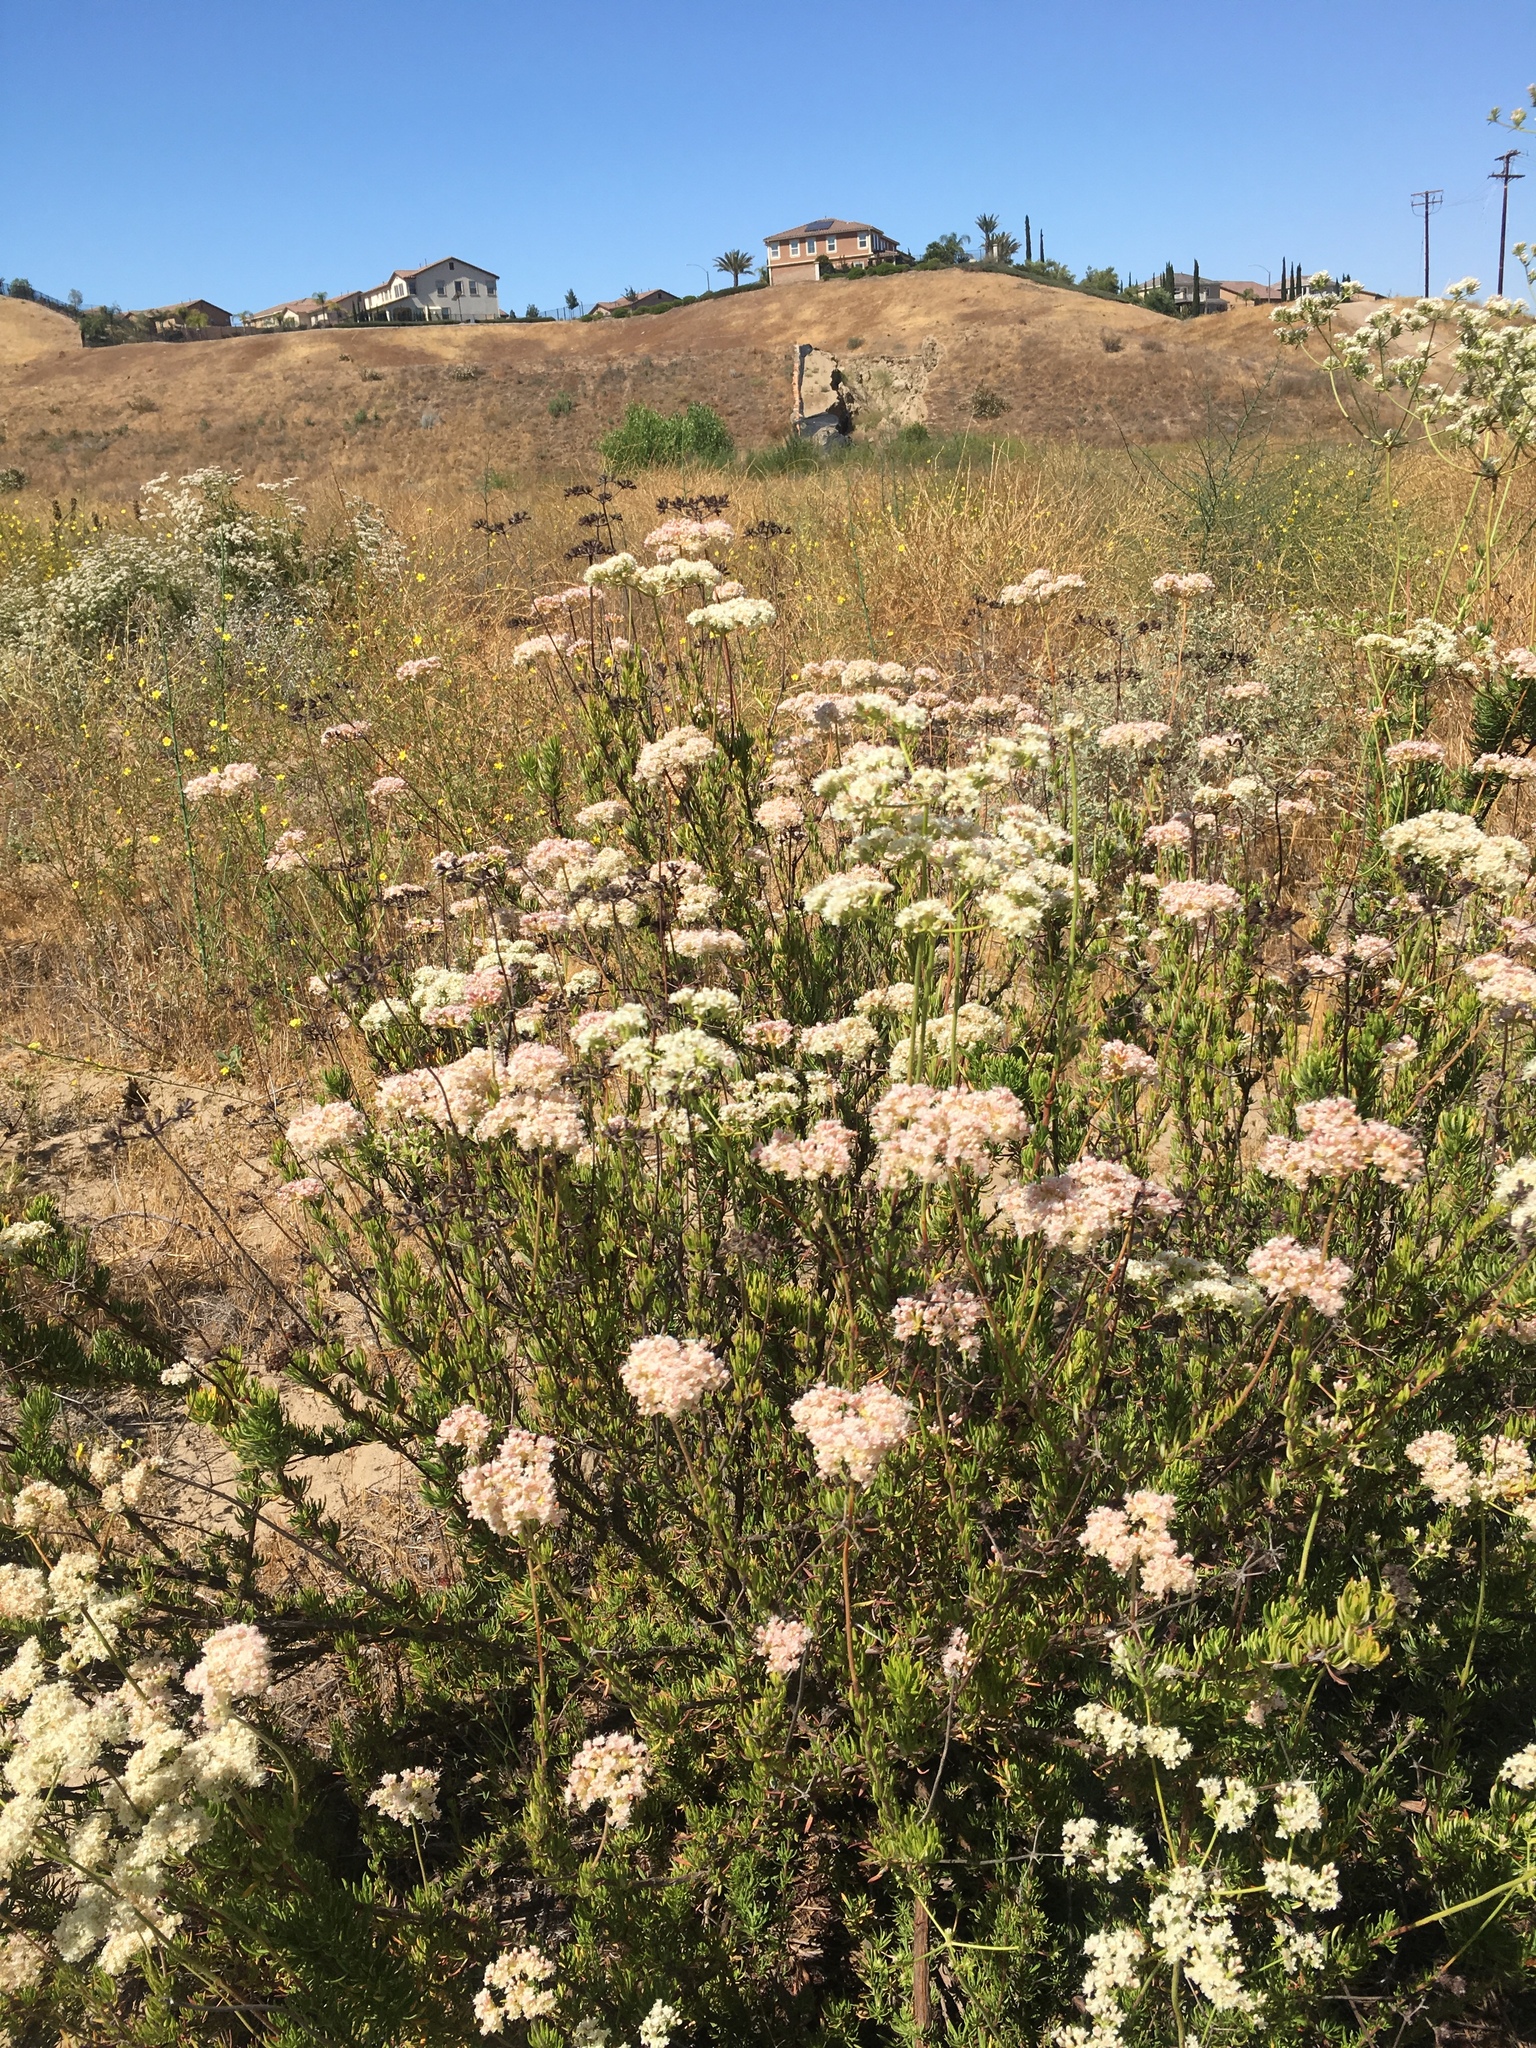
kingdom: Plantae
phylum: Tracheophyta
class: Magnoliopsida
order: Caryophyllales
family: Polygonaceae
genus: Eriogonum
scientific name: Eriogonum fasciculatum
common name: California wild buckwheat
